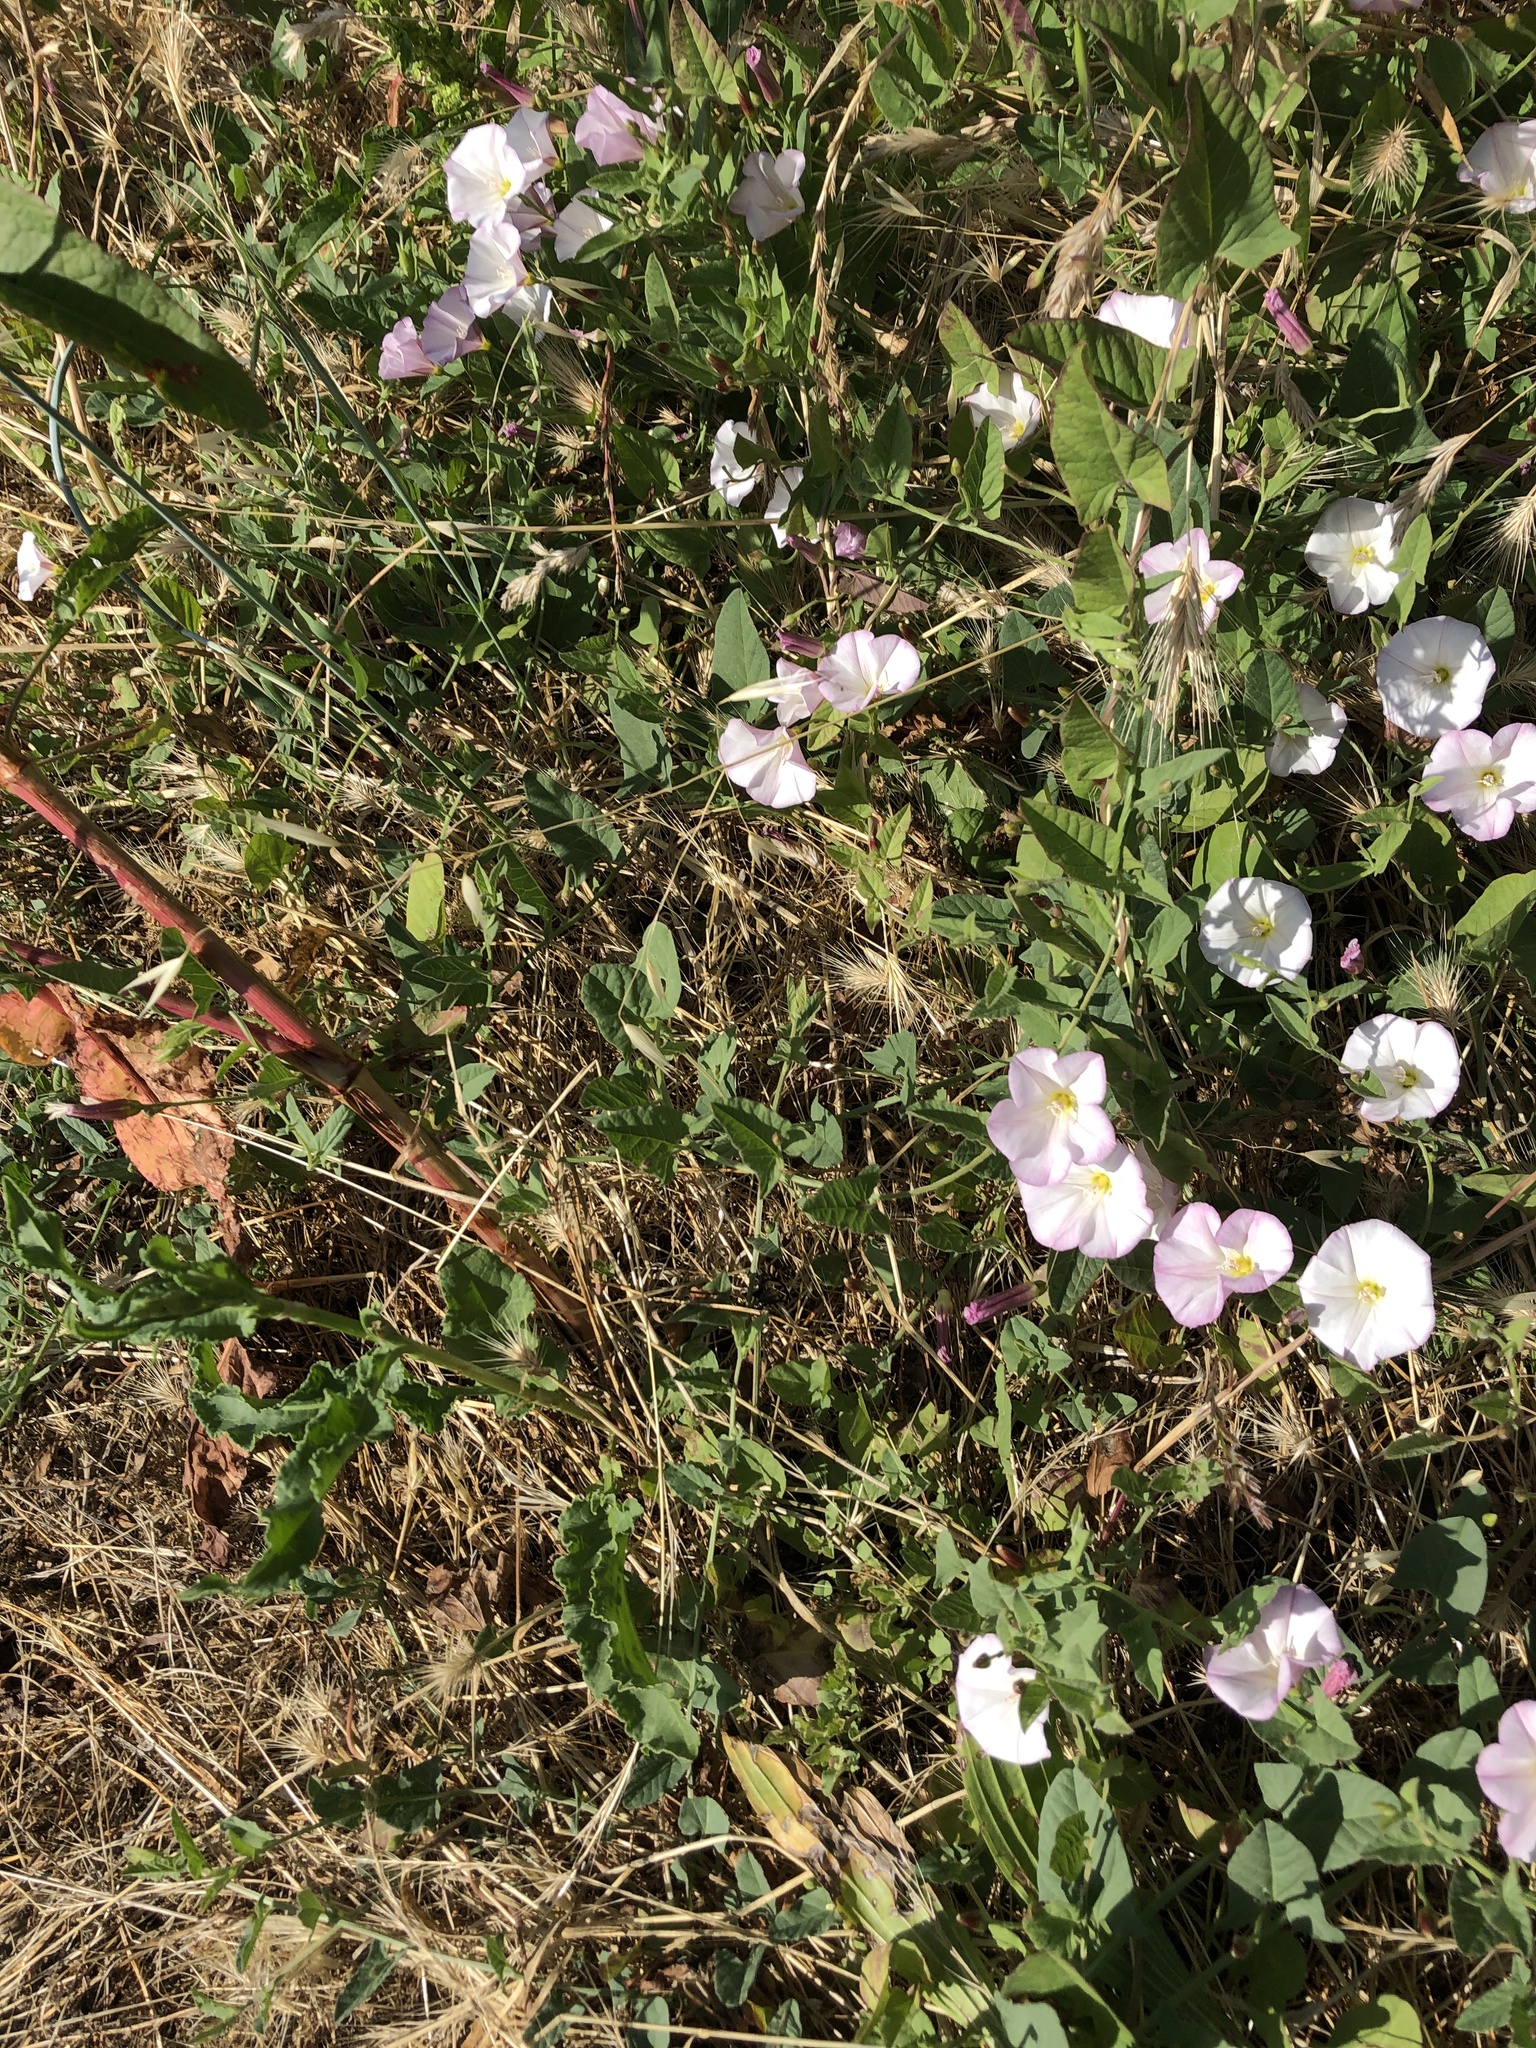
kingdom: Plantae
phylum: Tracheophyta
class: Magnoliopsida
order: Solanales
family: Convolvulaceae
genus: Convolvulus
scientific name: Convolvulus arvensis
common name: Field bindweed
